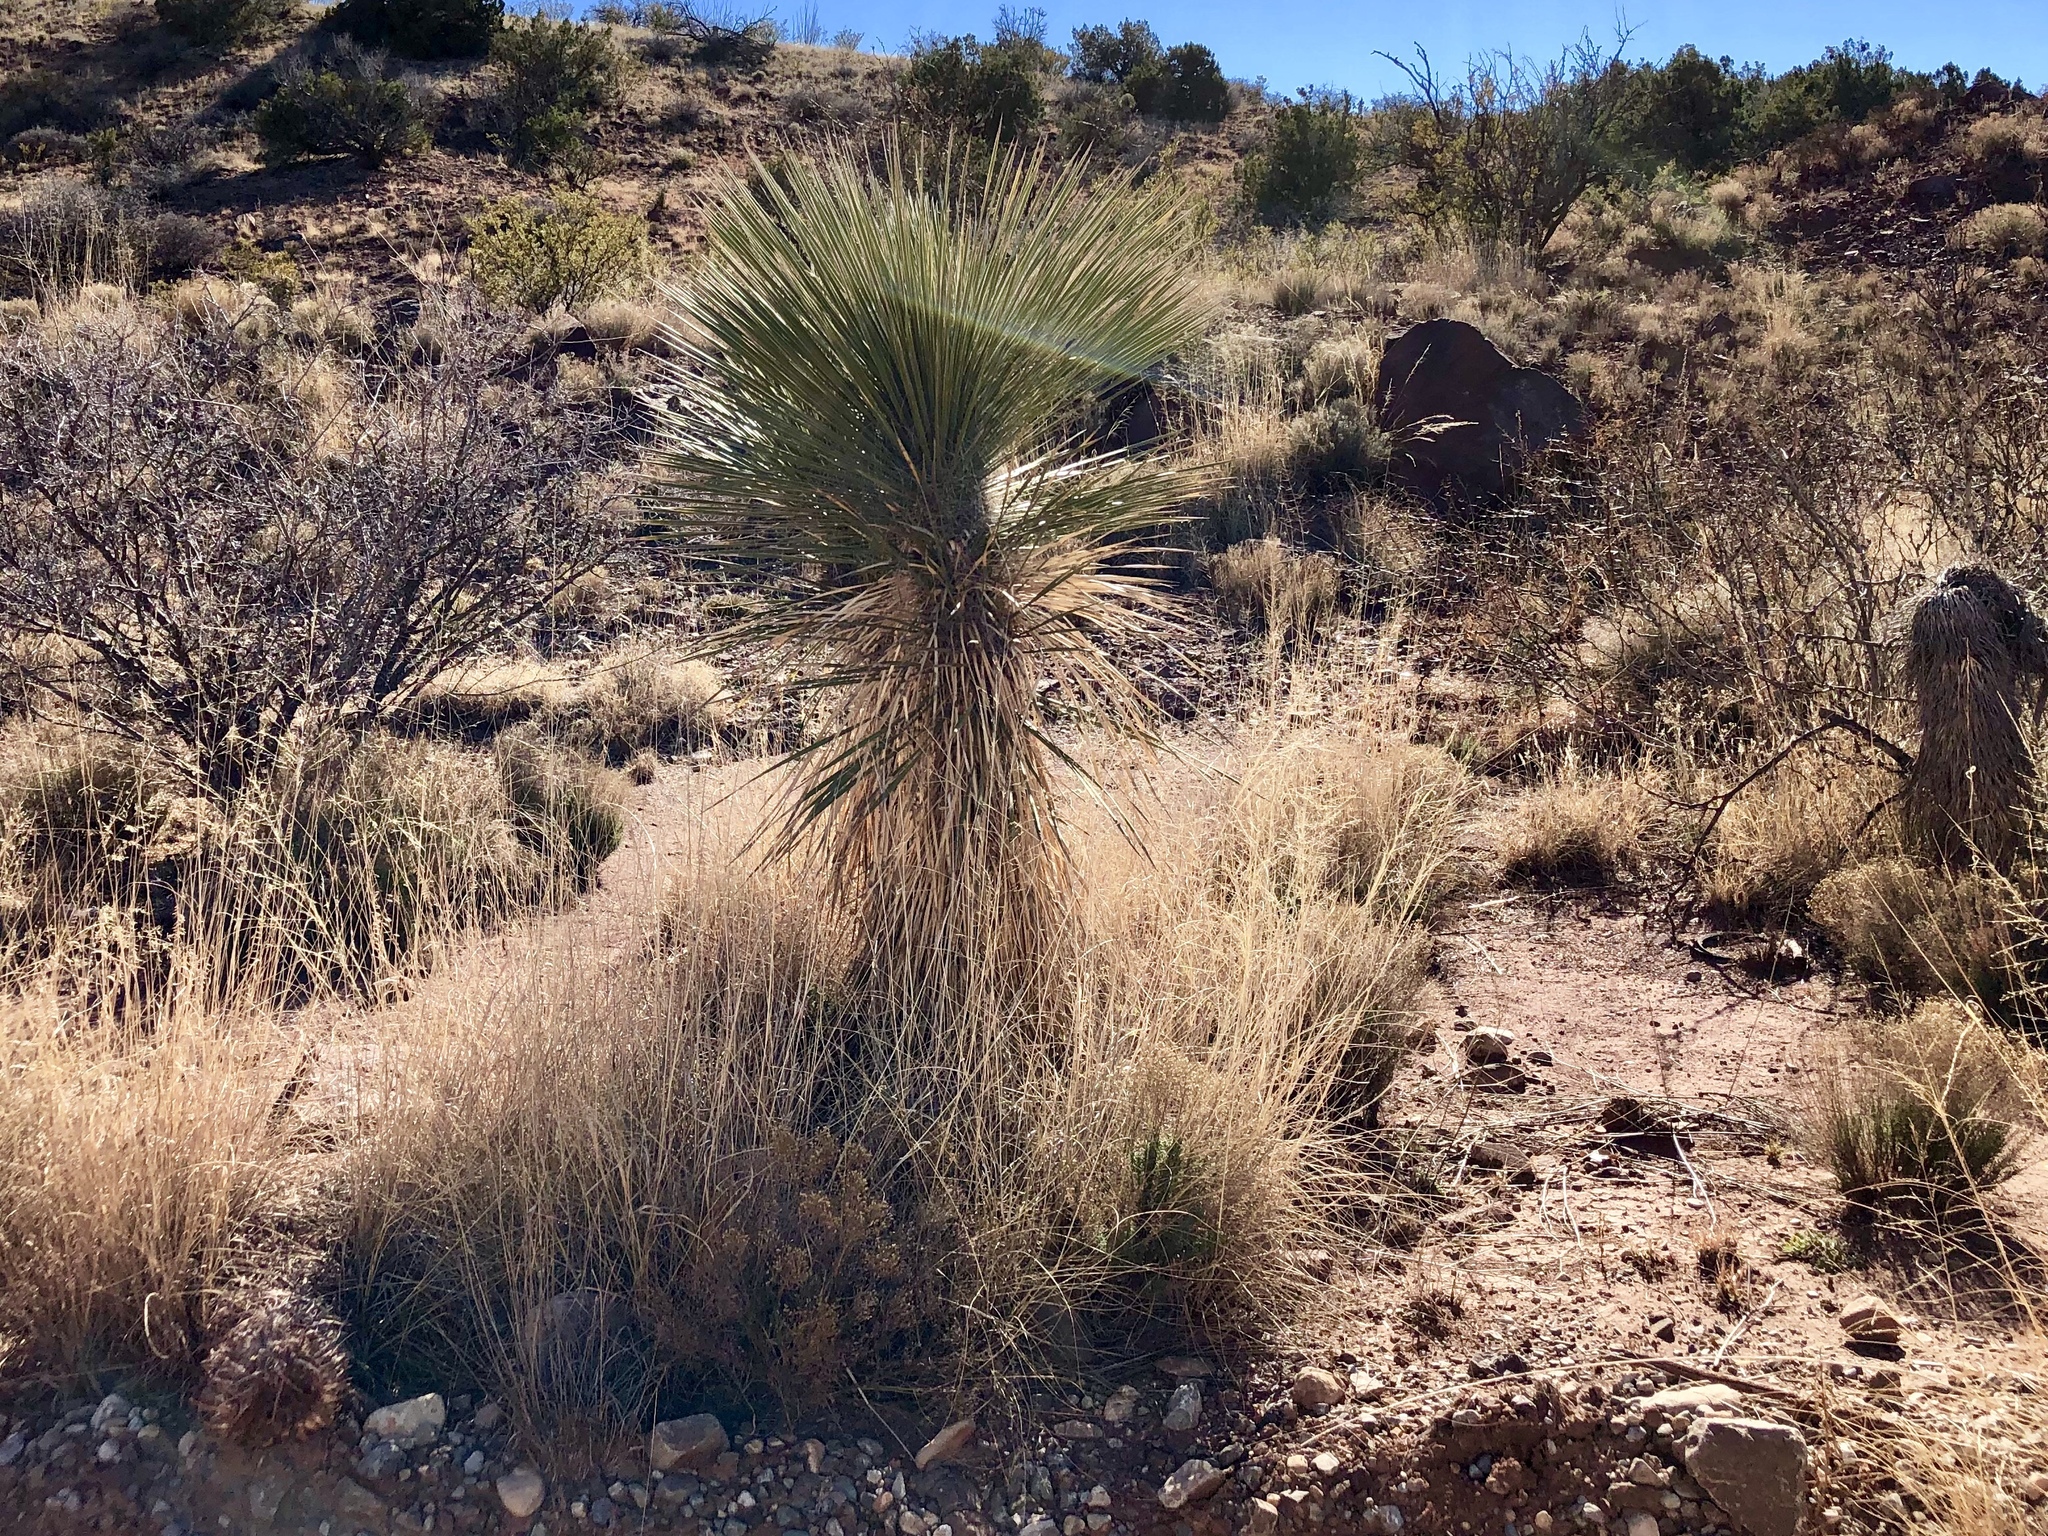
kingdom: Plantae
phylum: Tracheophyta
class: Liliopsida
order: Asparagales
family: Asparagaceae
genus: Yucca
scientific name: Yucca elata
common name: Palmella
